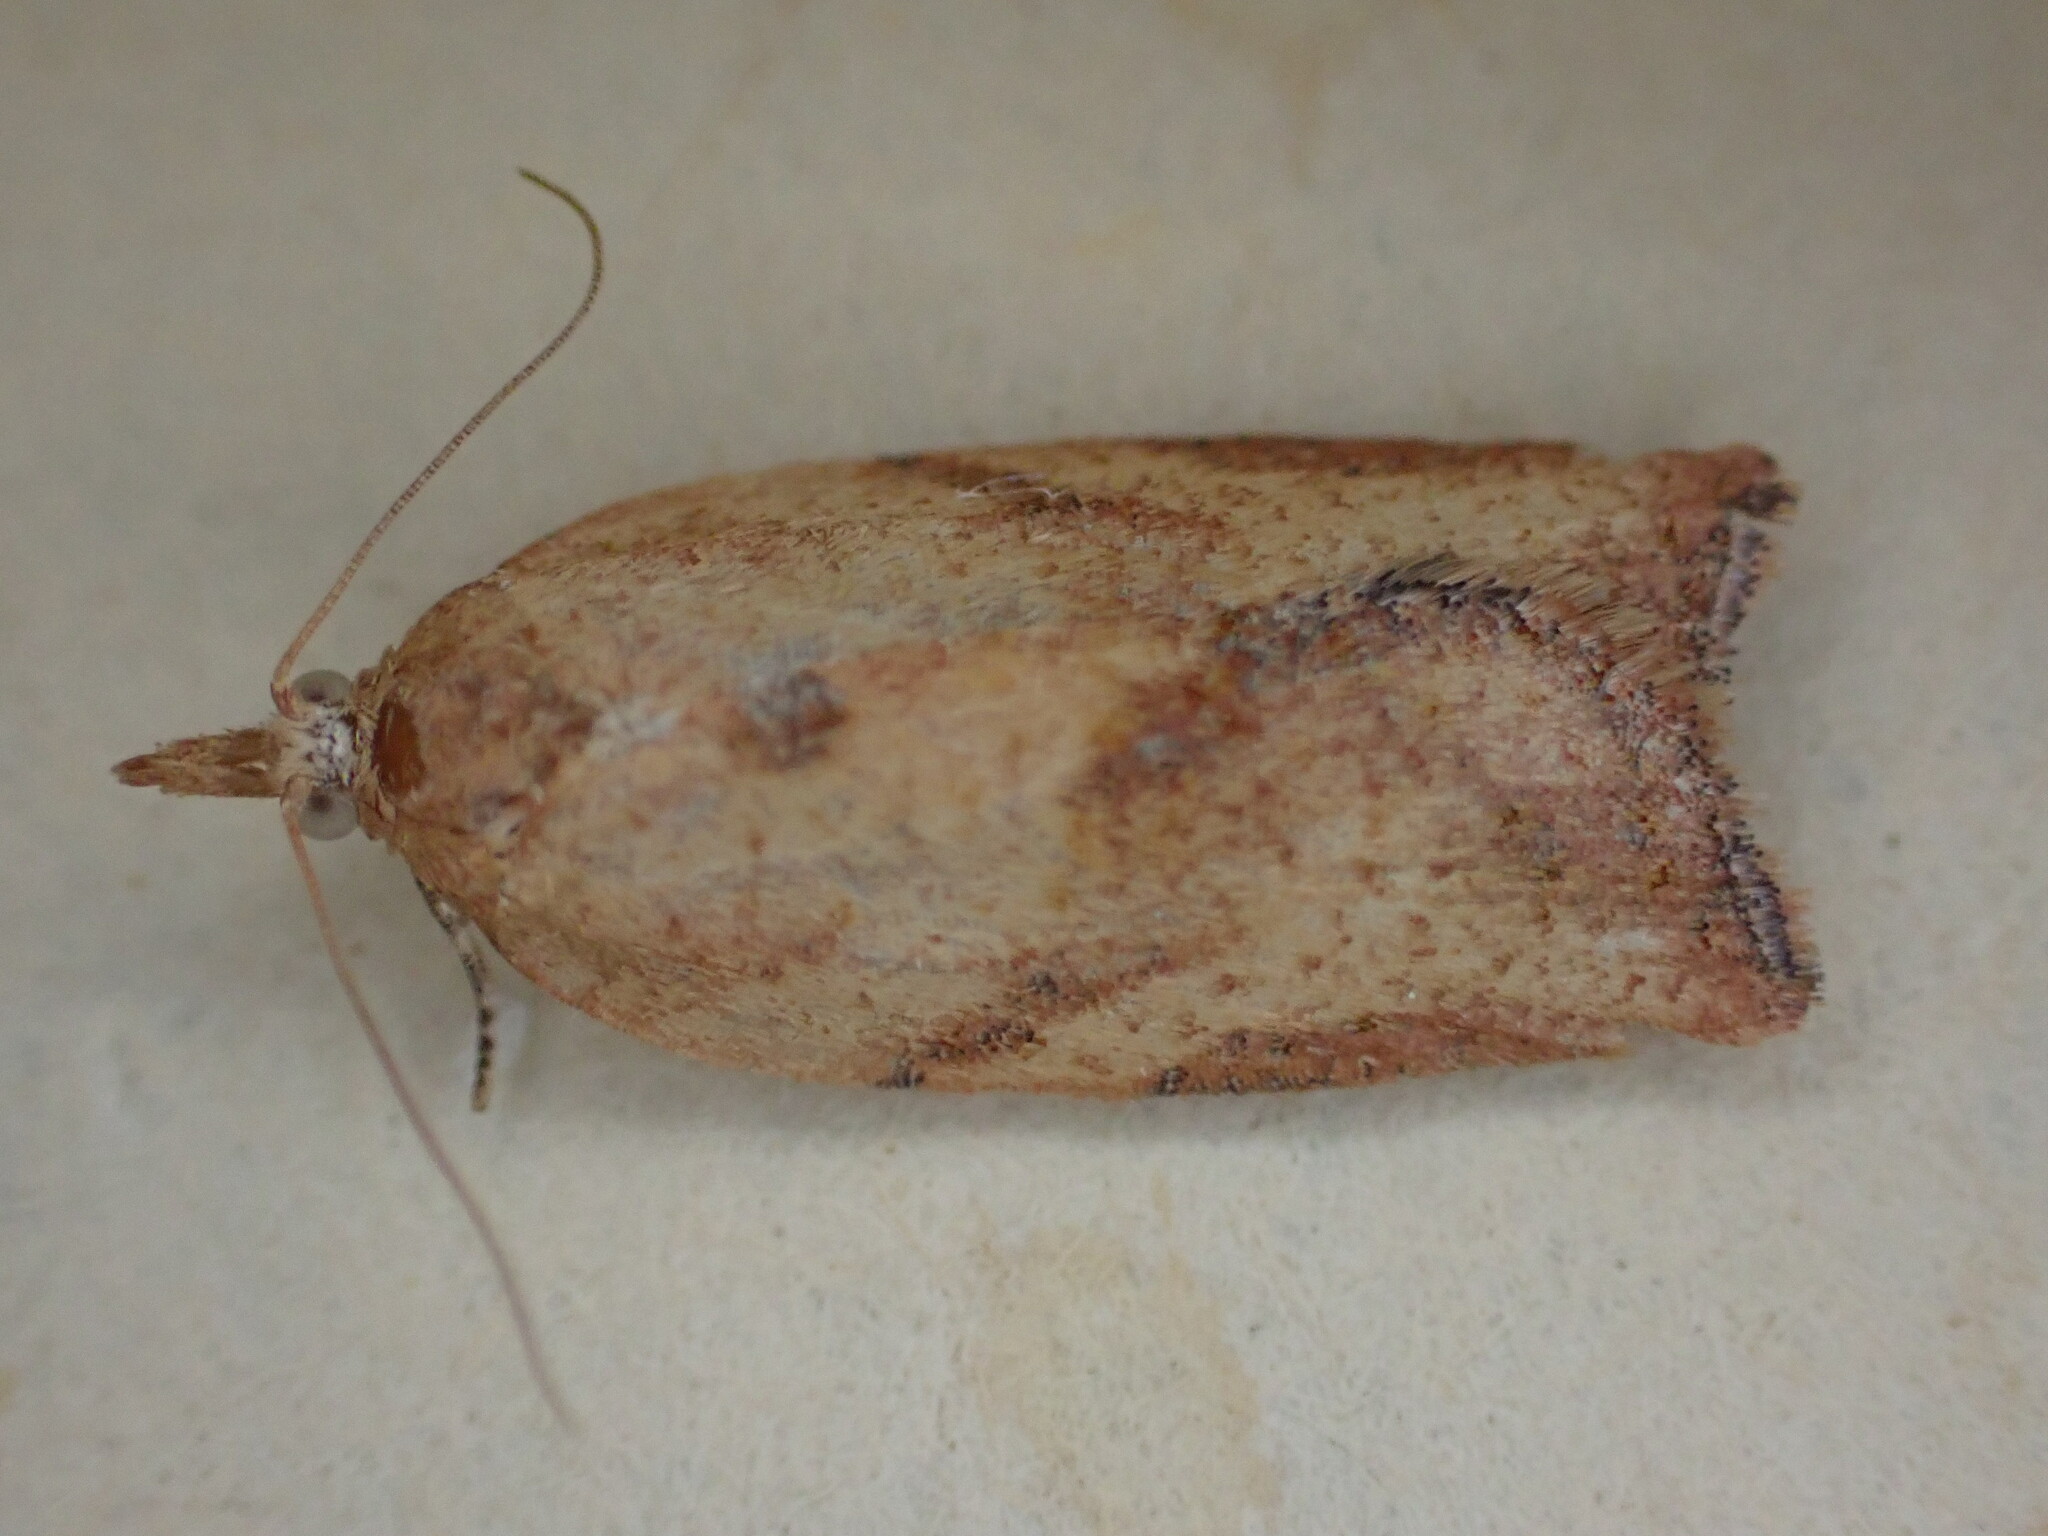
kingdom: Animalia
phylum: Arthropoda
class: Insecta
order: Lepidoptera
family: Tortricidae
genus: Epiphyas
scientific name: Epiphyas postvittana
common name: Light brown apple moth
